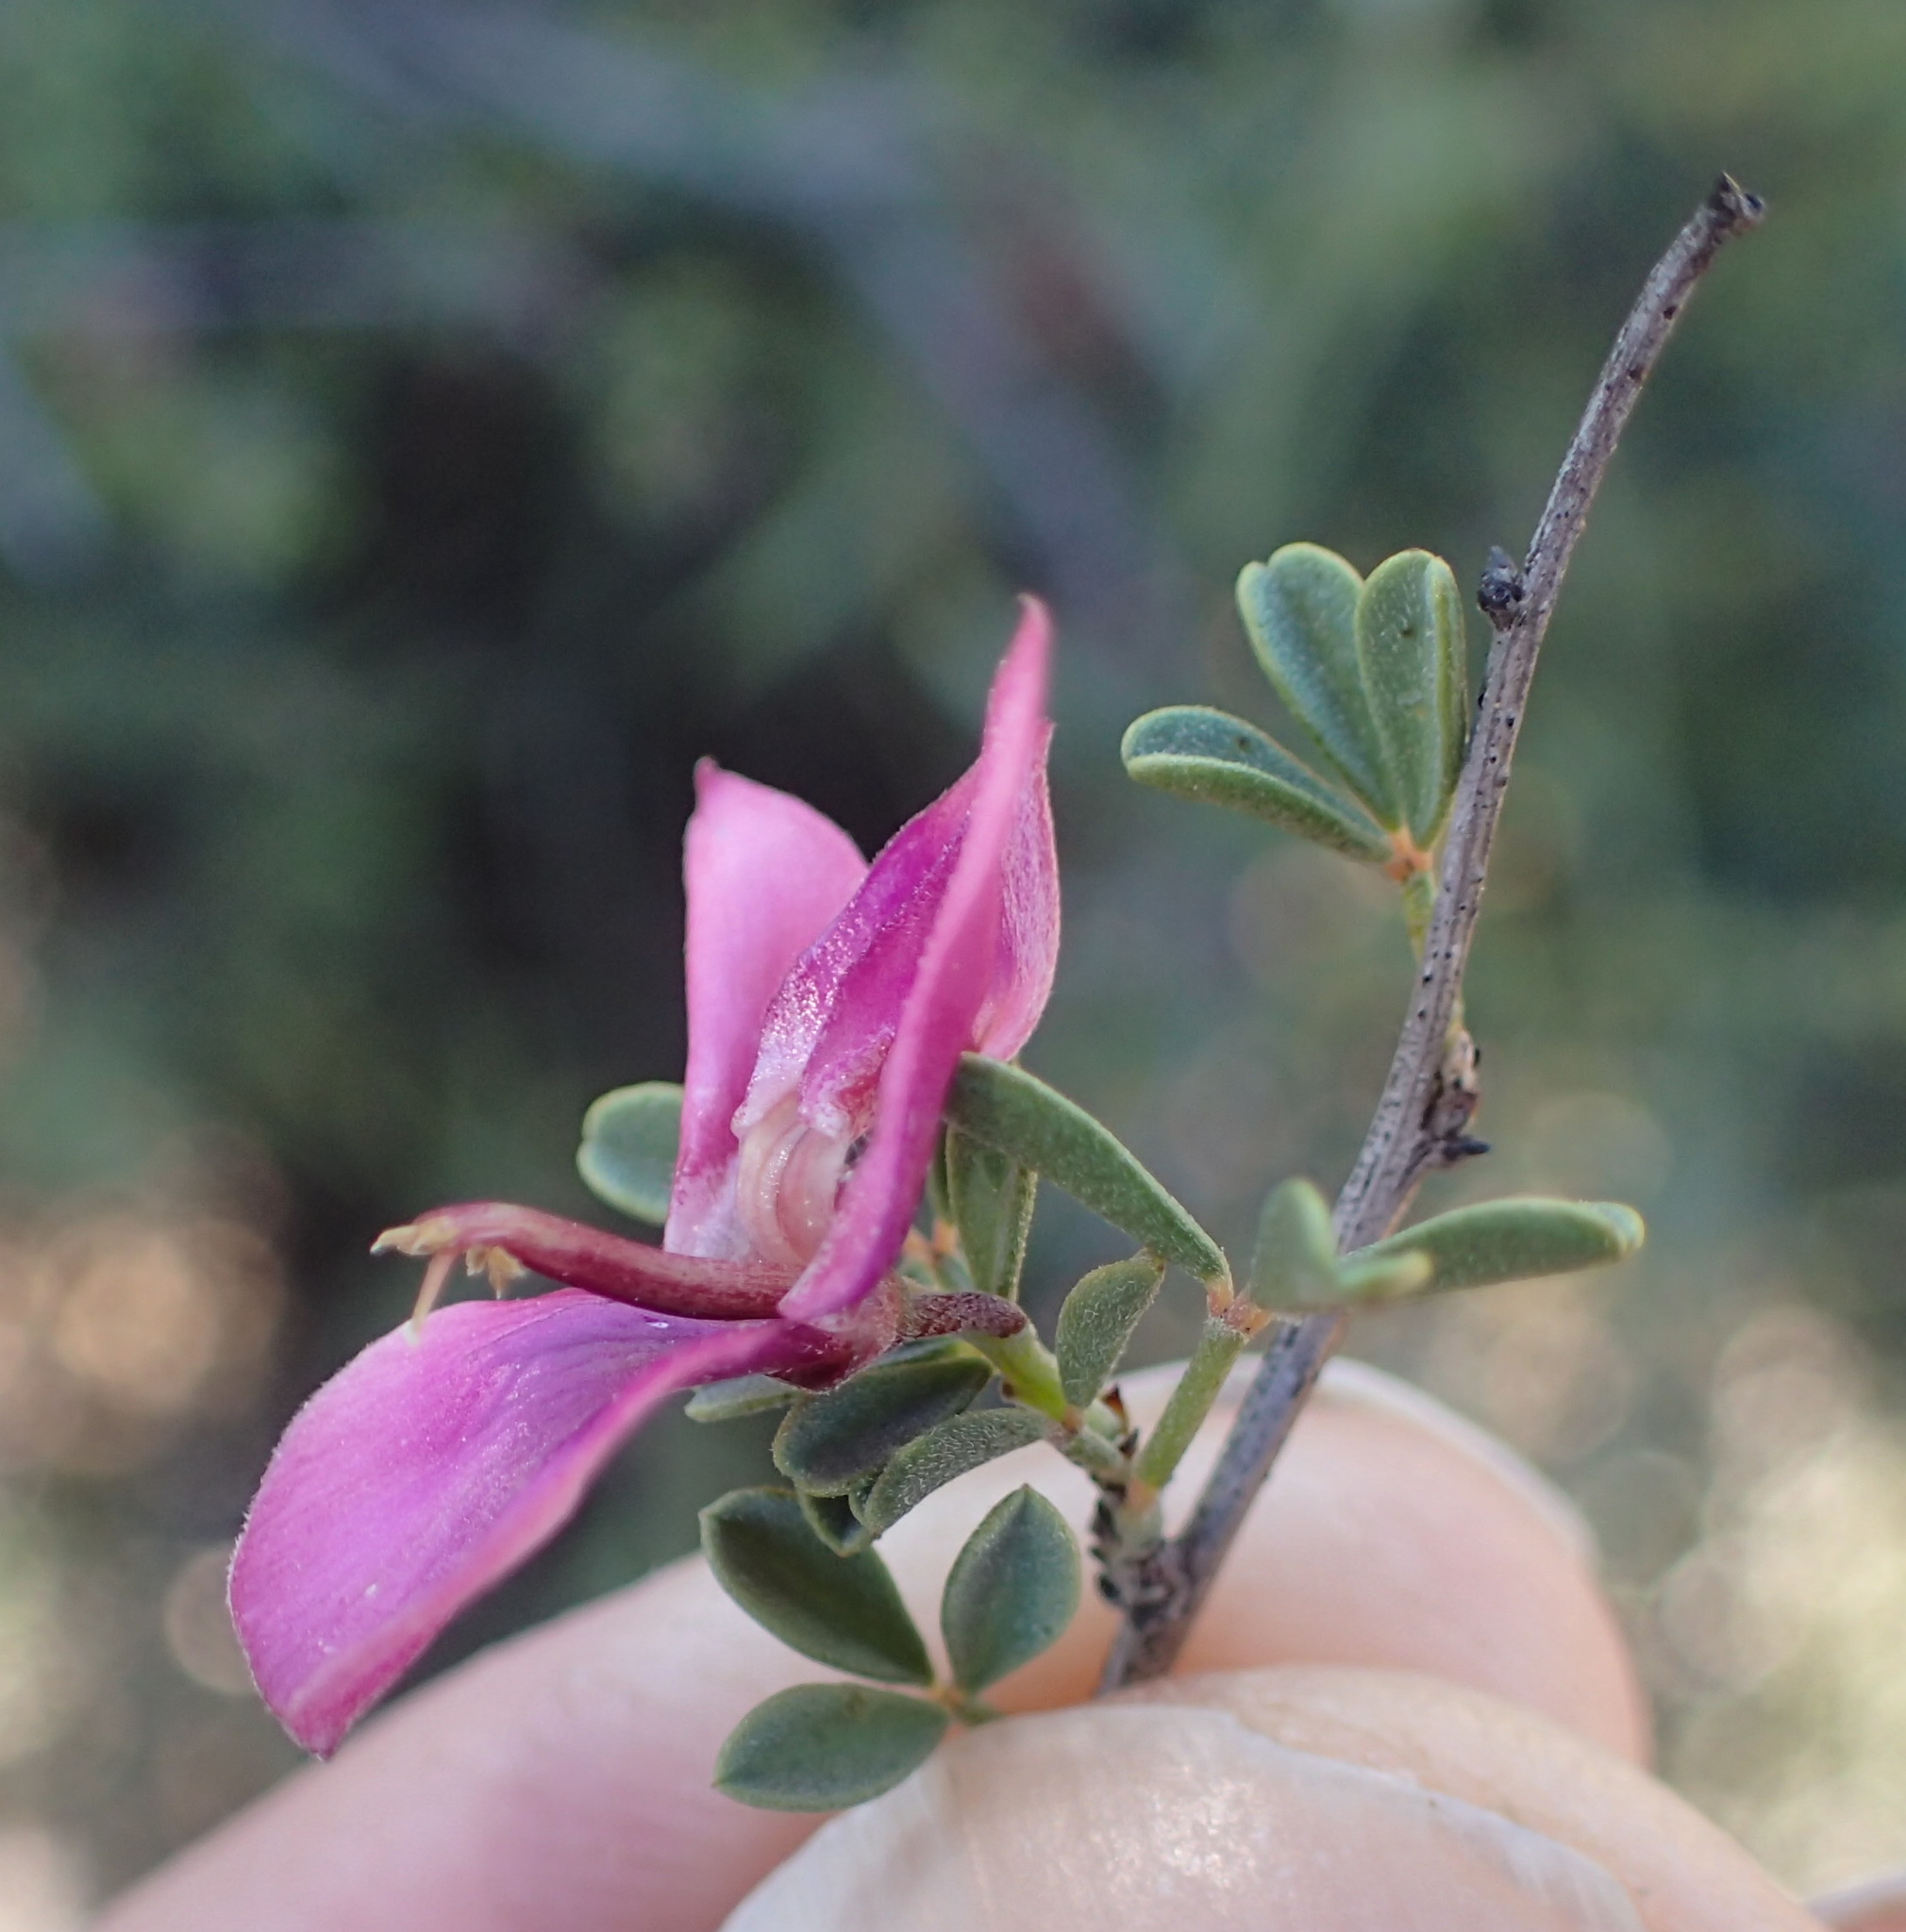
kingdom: Plantae
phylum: Tracheophyta
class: Magnoliopsida
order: Fabales
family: Fabaceae
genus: Indigofera
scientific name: Indigofera spinescens
